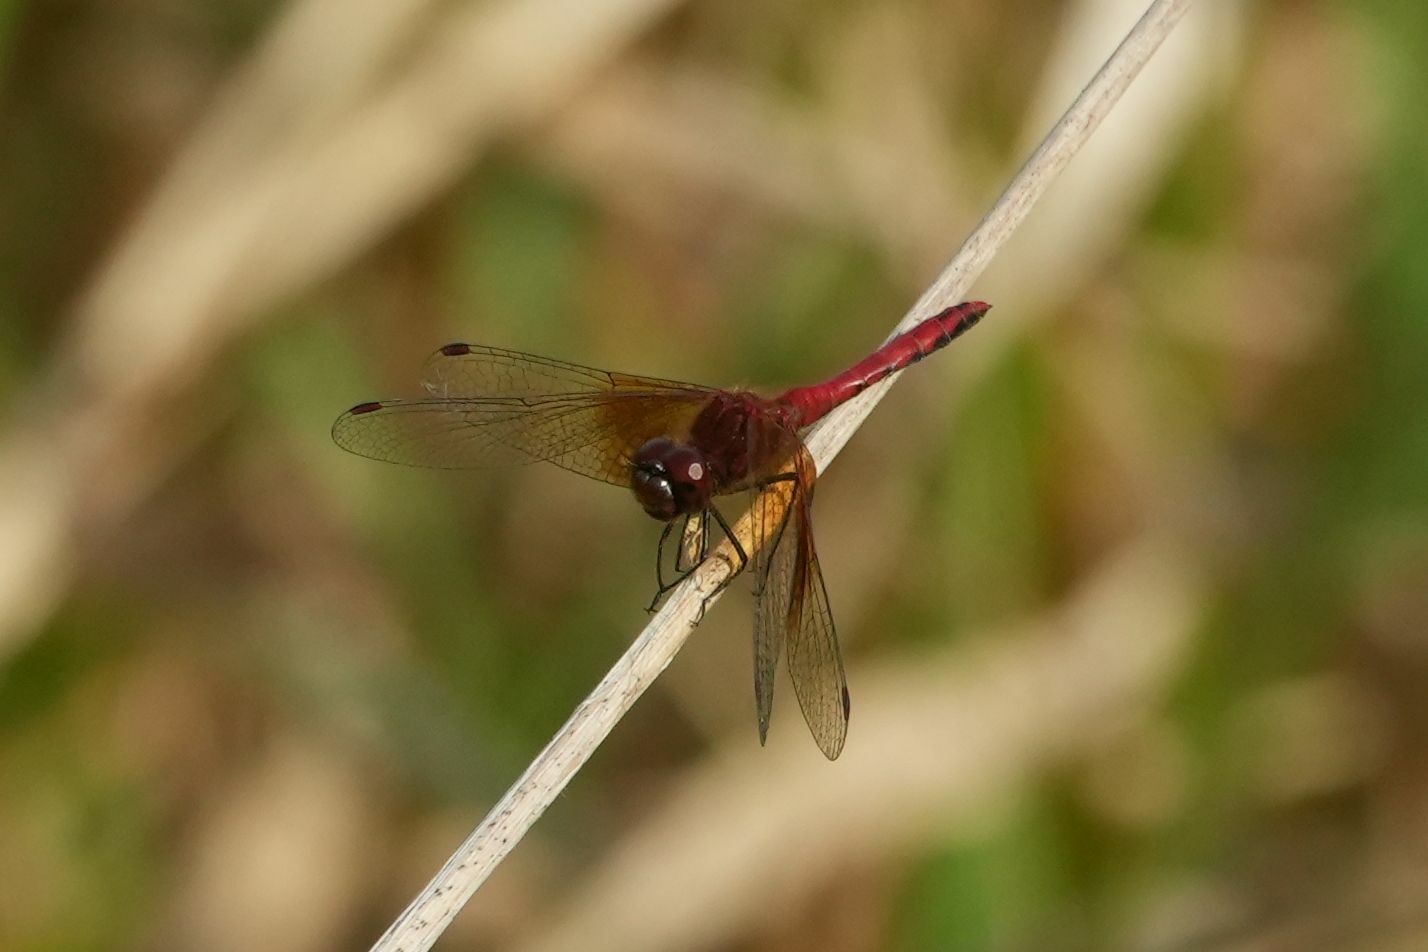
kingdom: Animalia
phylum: Arthropoda
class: Insecta
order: Odonata
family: Libellulidae
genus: Sympetrum
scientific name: Sympetrum semicinctum
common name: Band-winged meadowhawk
